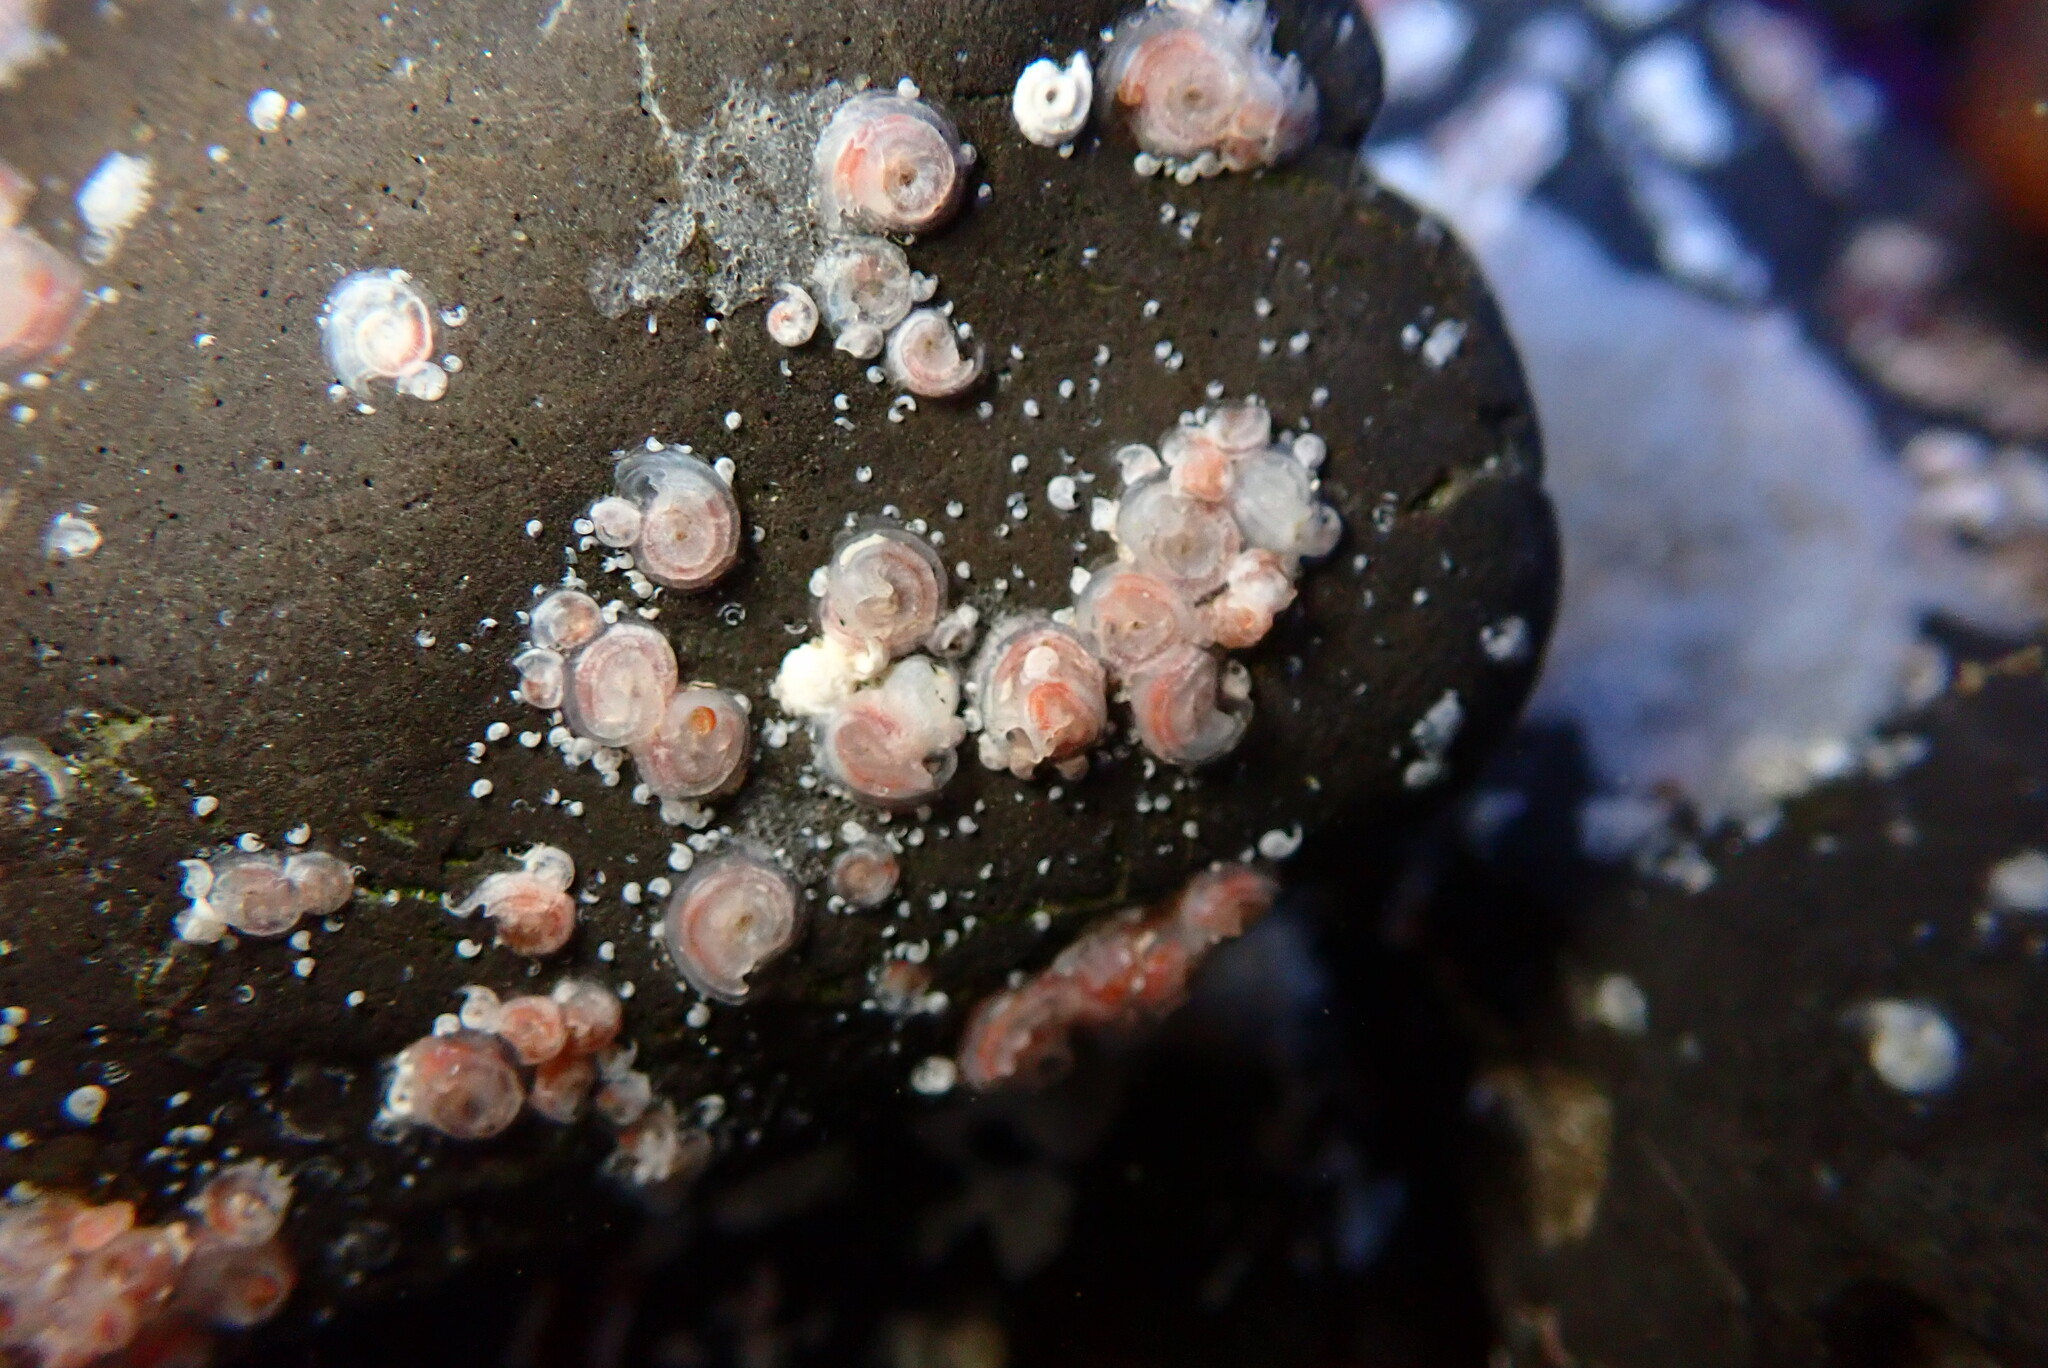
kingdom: Animalia
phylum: Annelida
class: Polychaeta
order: Sabellida
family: Serpulidae
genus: Paradexiospira
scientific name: Paradexiospira vitrea
